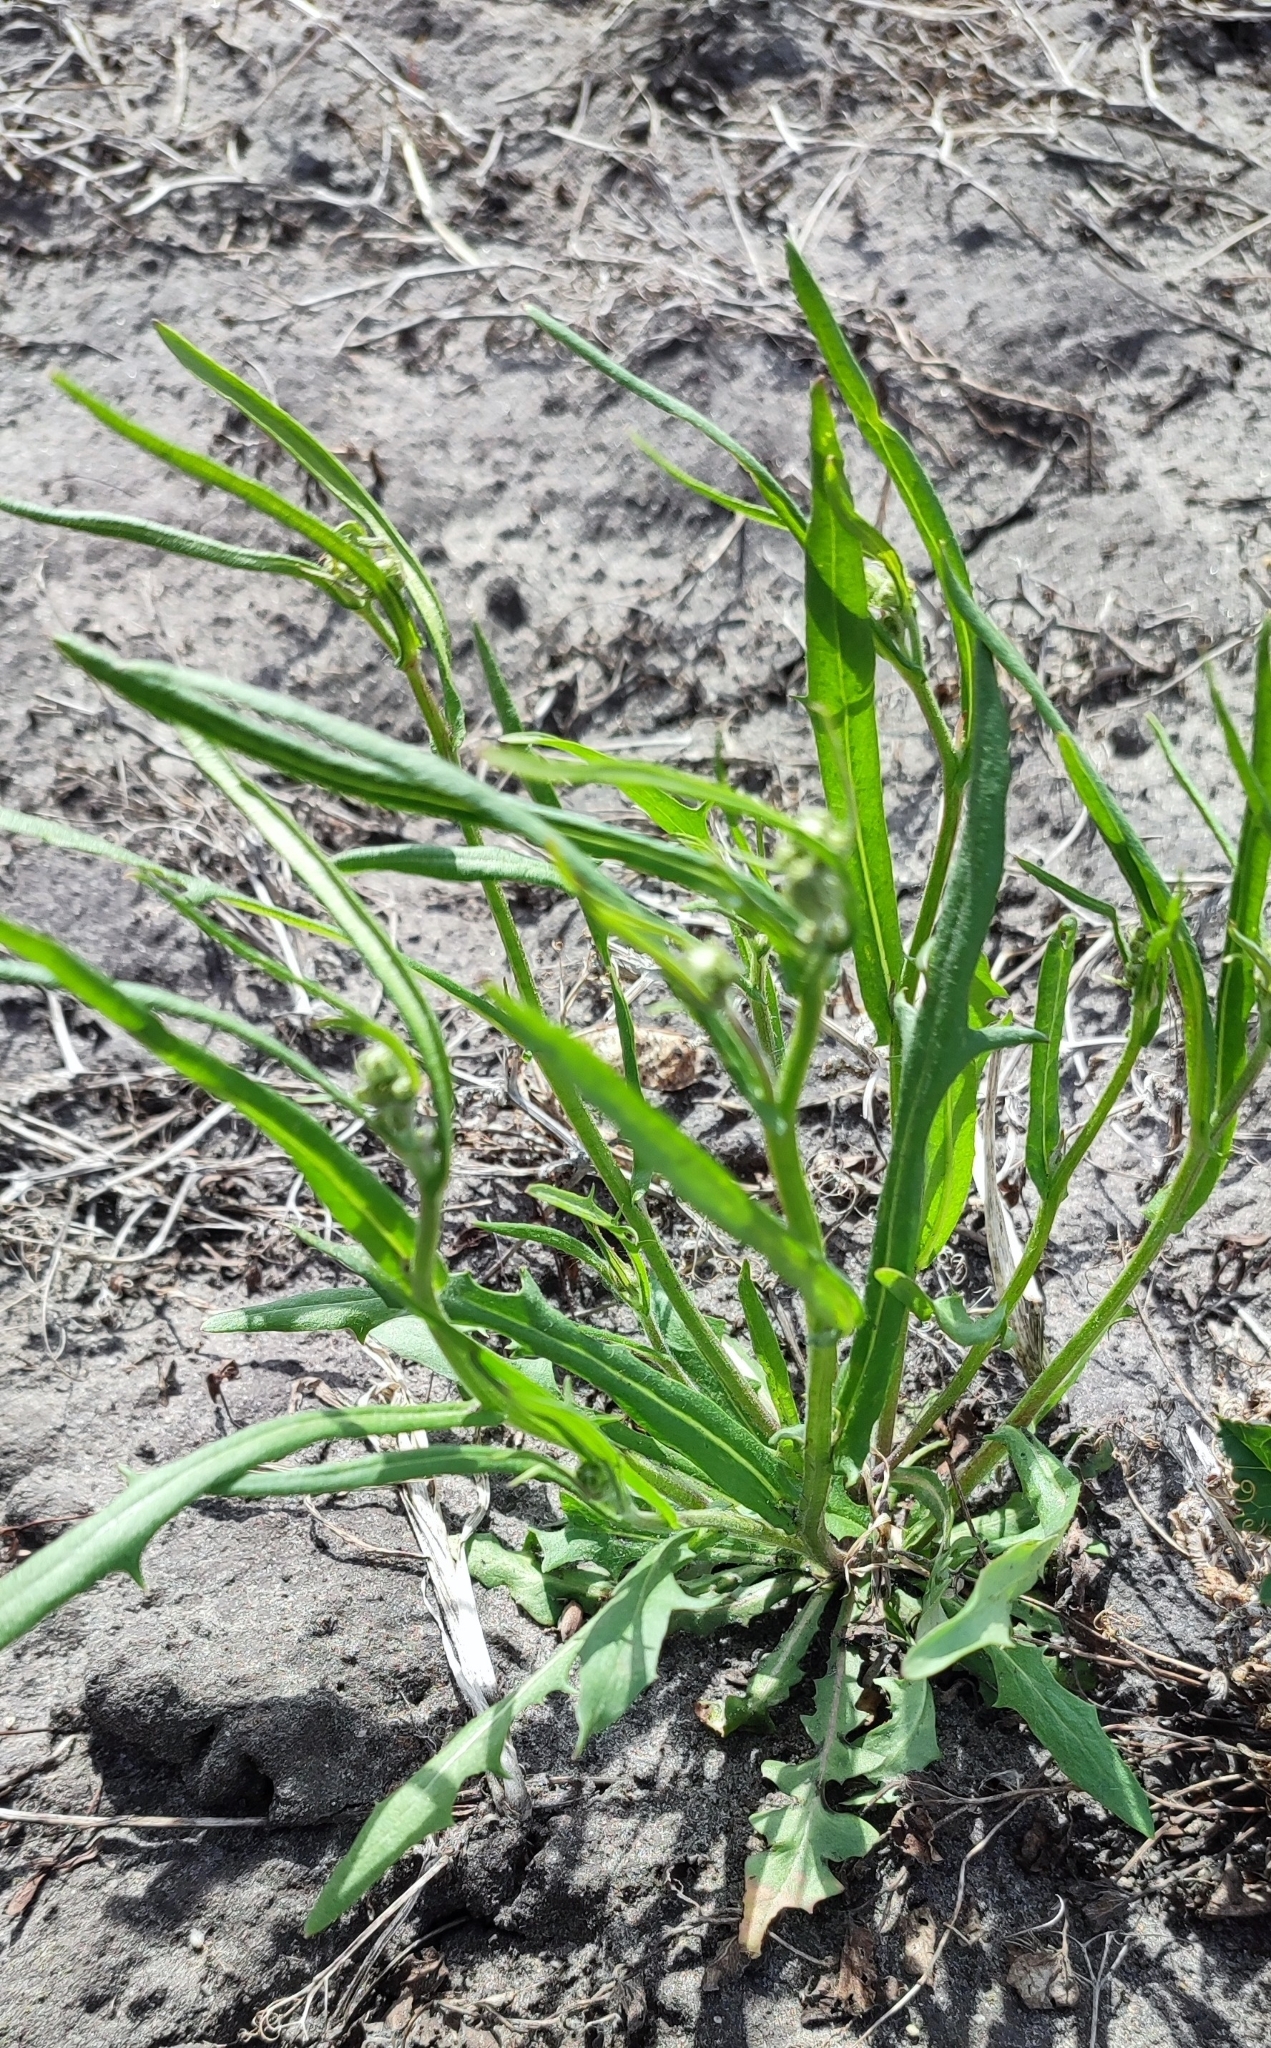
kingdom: Plantae
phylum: Tracheophyta
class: Magnoliopsida
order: Asterales
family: Asteraceae
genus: Crepis
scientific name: Crepis tectorum
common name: Narrow-leaved hawk's-beard
